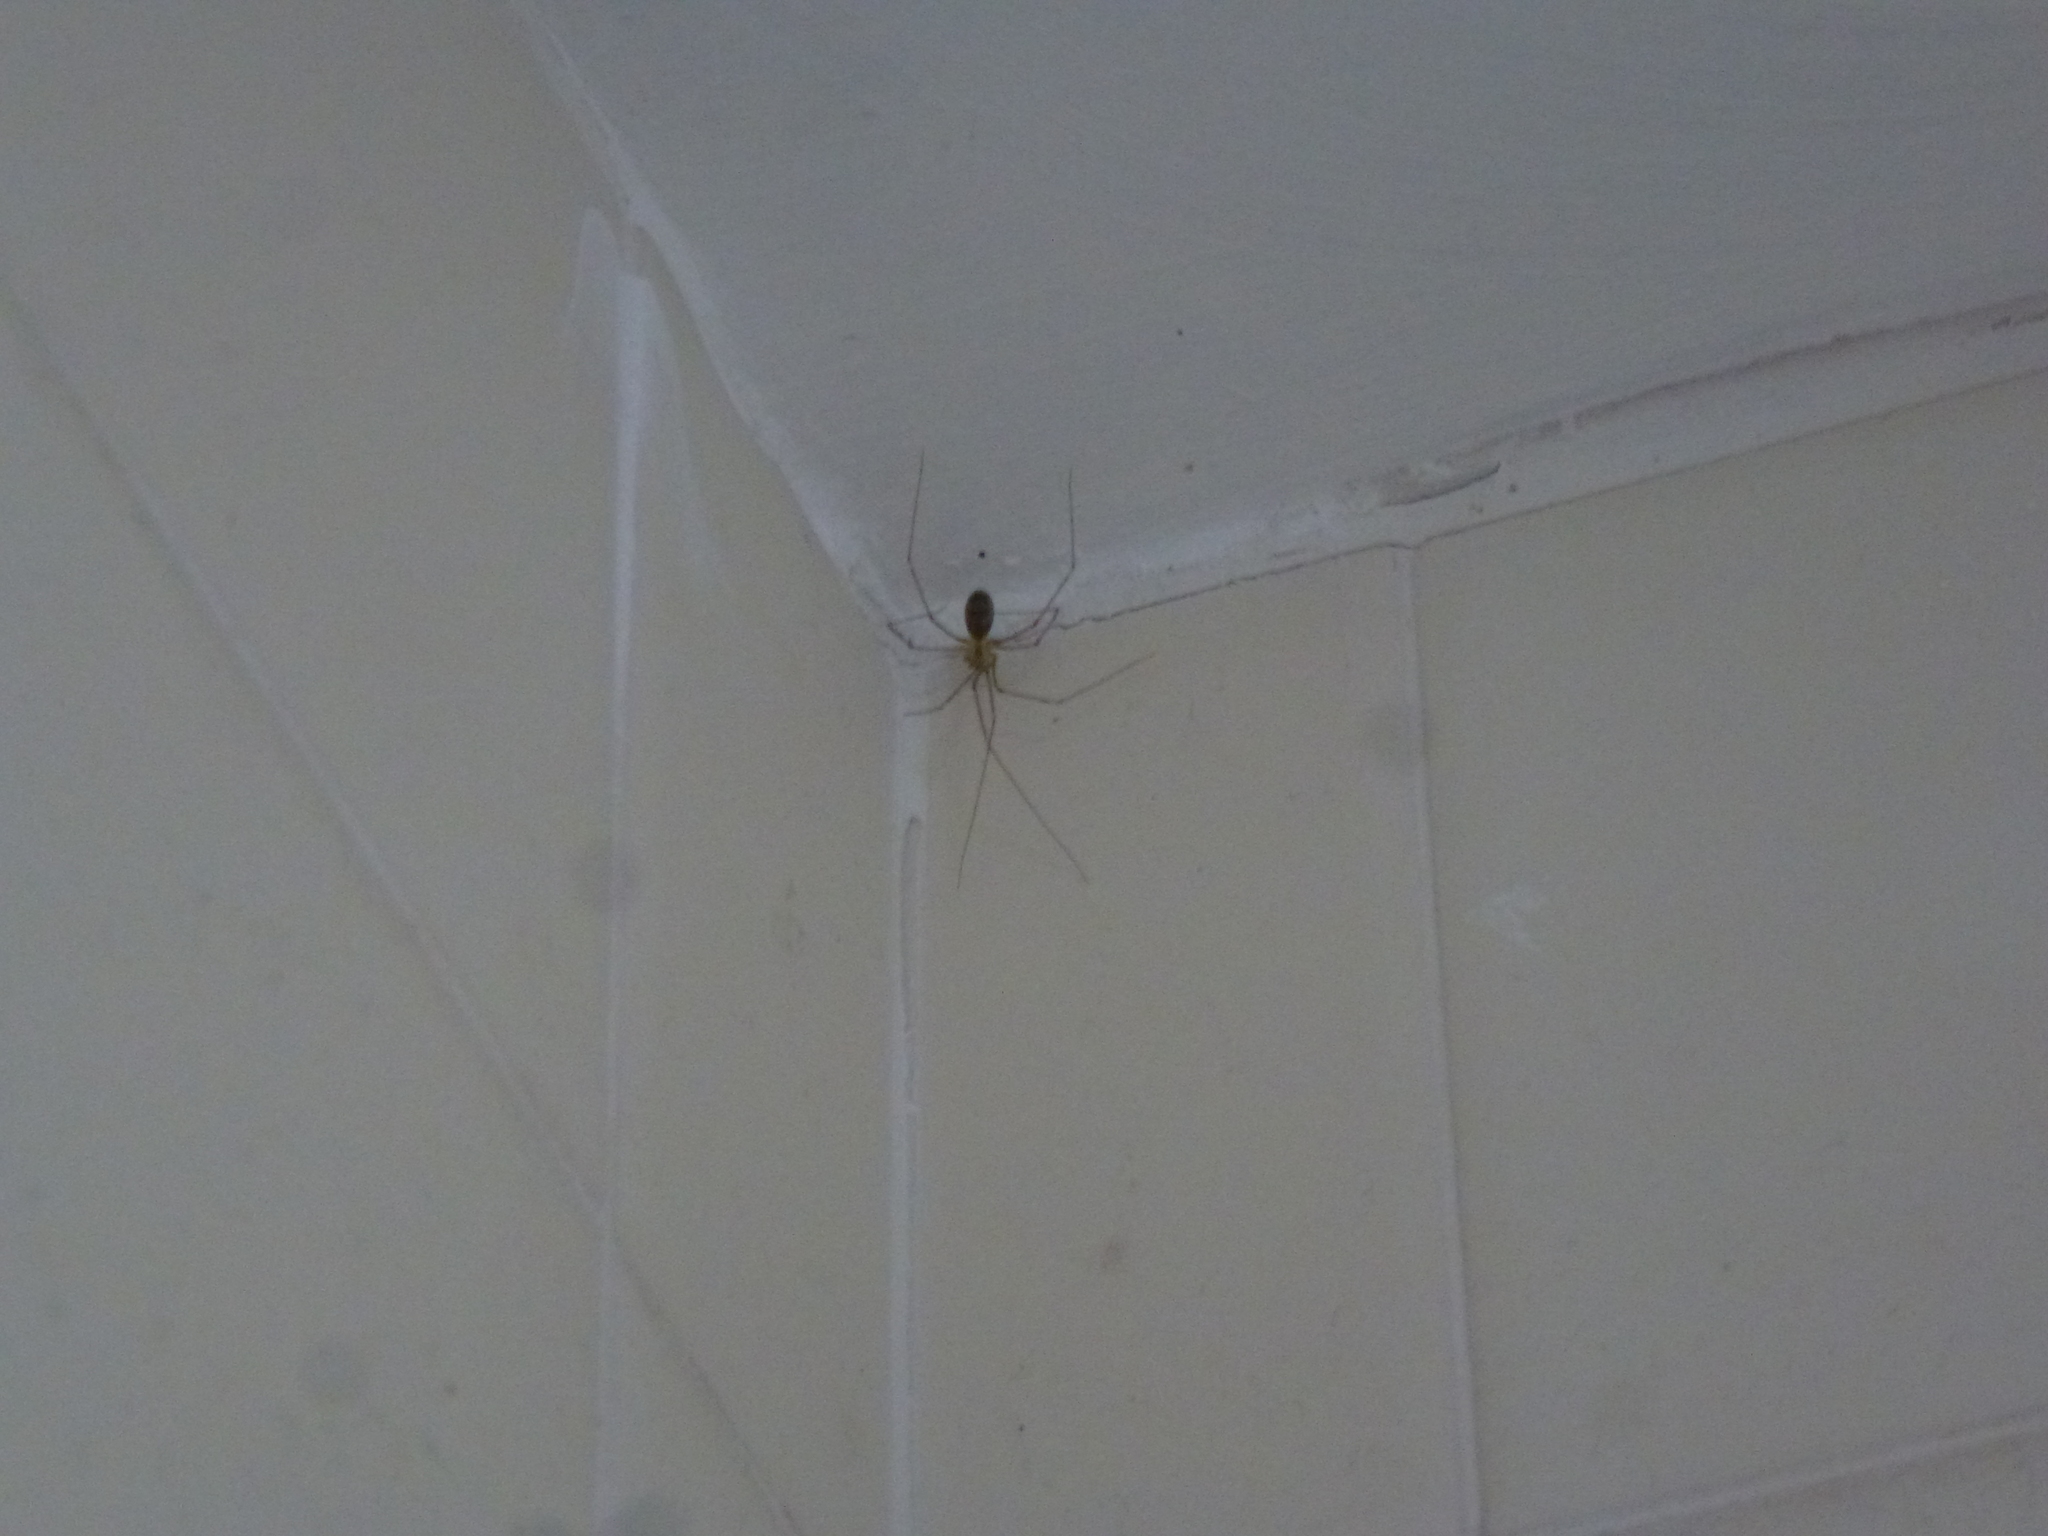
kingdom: Animalia
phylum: Arthropoda
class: Arachnida
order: Araneae
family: Pholcidae
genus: Pholcus
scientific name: Pholcus phalangioides
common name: Longbodied cellar spider
